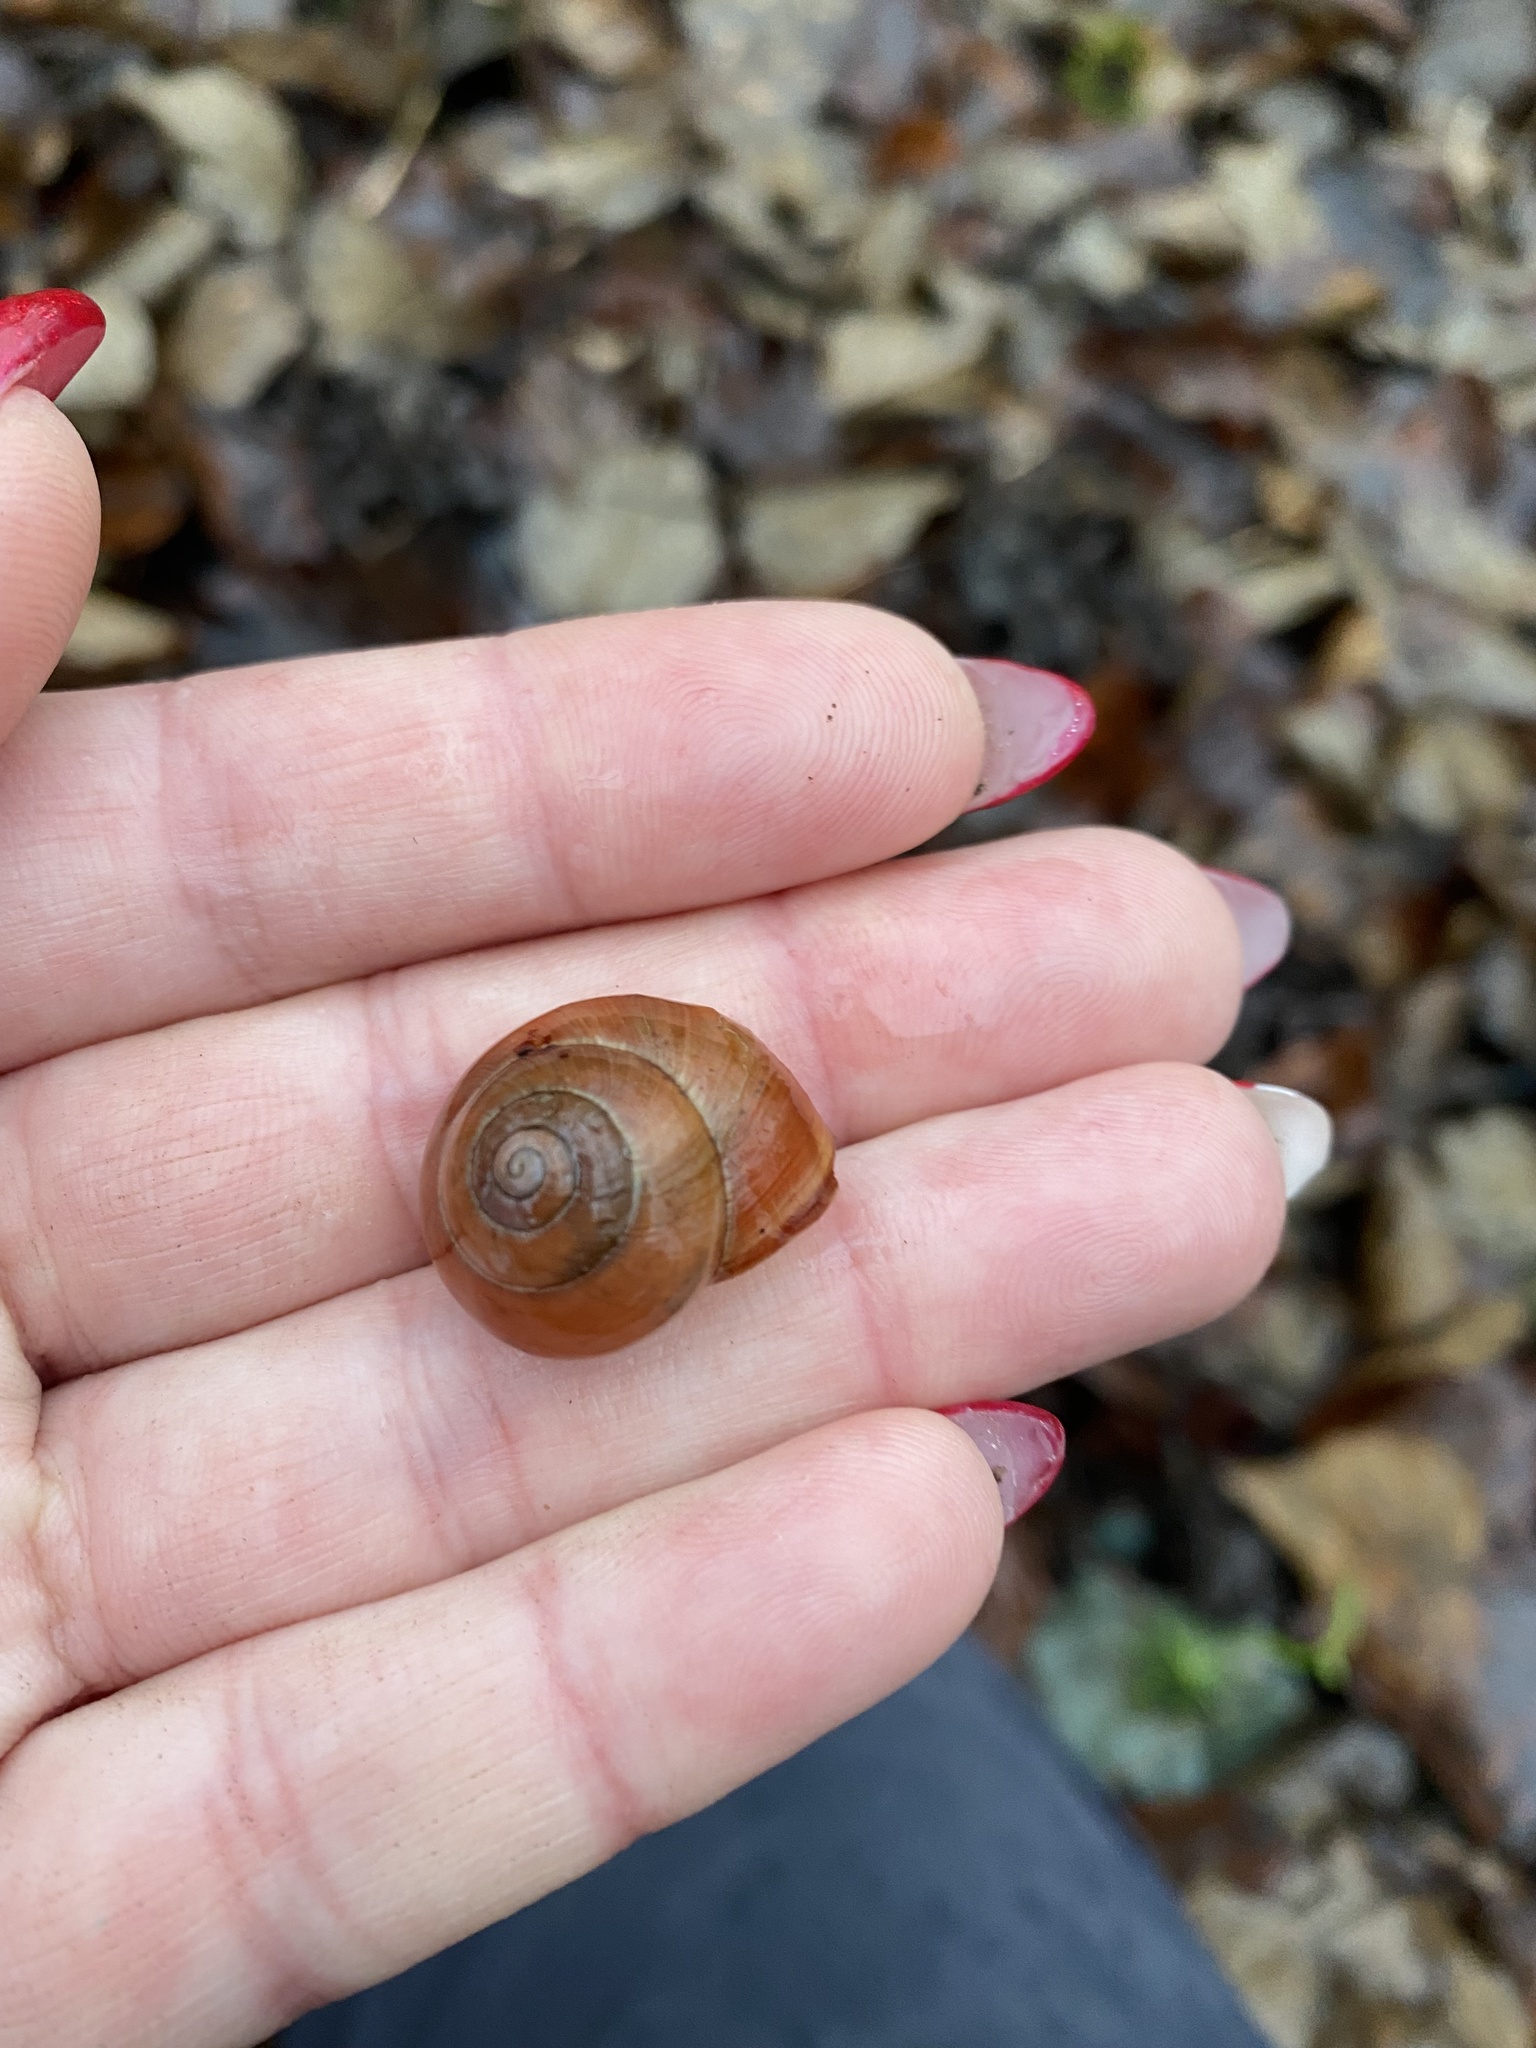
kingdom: Animalia
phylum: Mollusca
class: Gastropoda
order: Stylommatophora
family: Helicidae
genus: Cepaea
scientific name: Cepaea nemoralis
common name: Grovesnail
